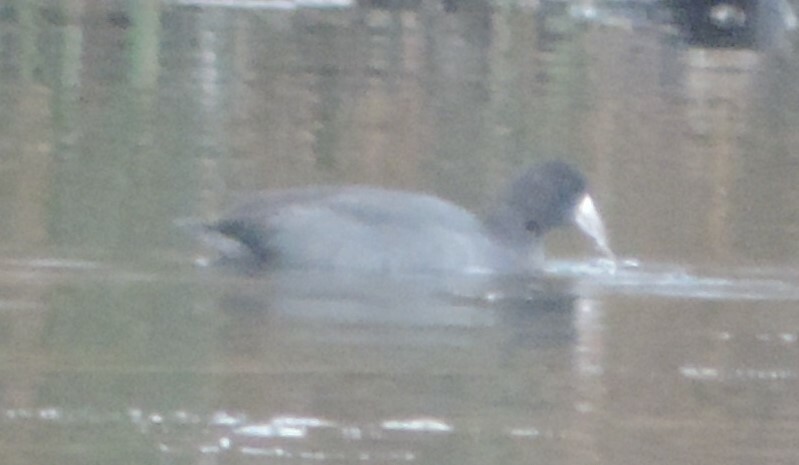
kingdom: Animalia
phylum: Chordata
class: Aves
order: Gruiformes
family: Rallidae
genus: Fulica
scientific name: Fulica americana
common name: American coot
